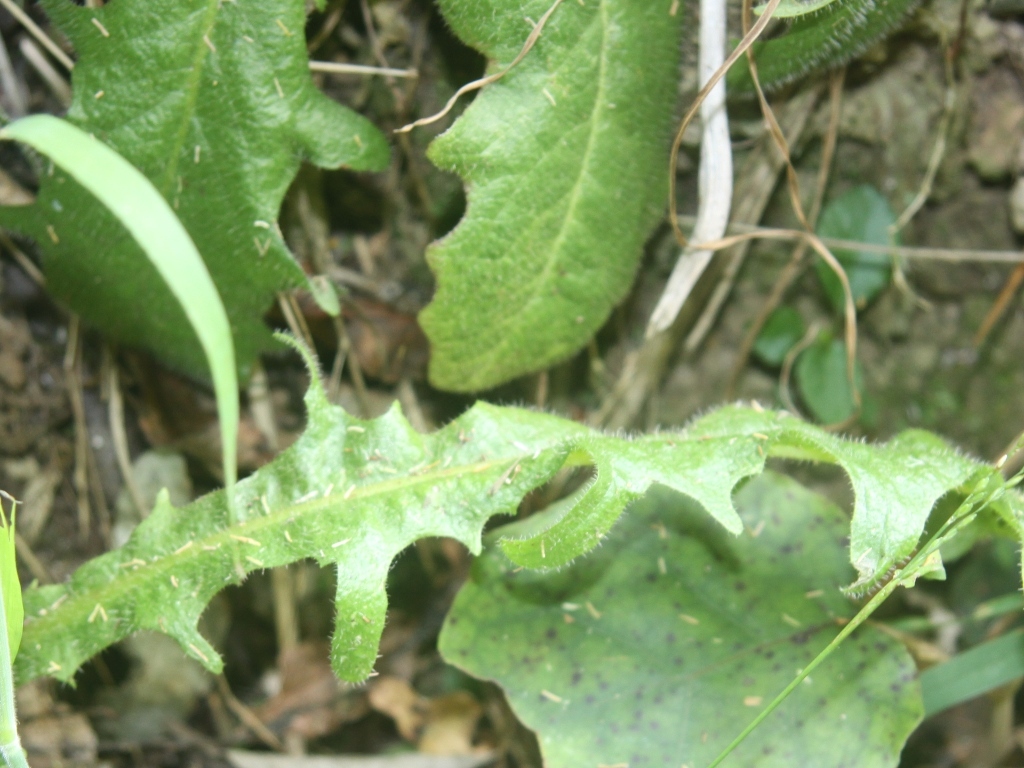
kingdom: Plantae
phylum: Tracheophyta
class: Magnoliopsida
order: Asterales
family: Asteraceae
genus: Hypochaeris
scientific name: Hypochaeris radicata
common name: Flatweed
